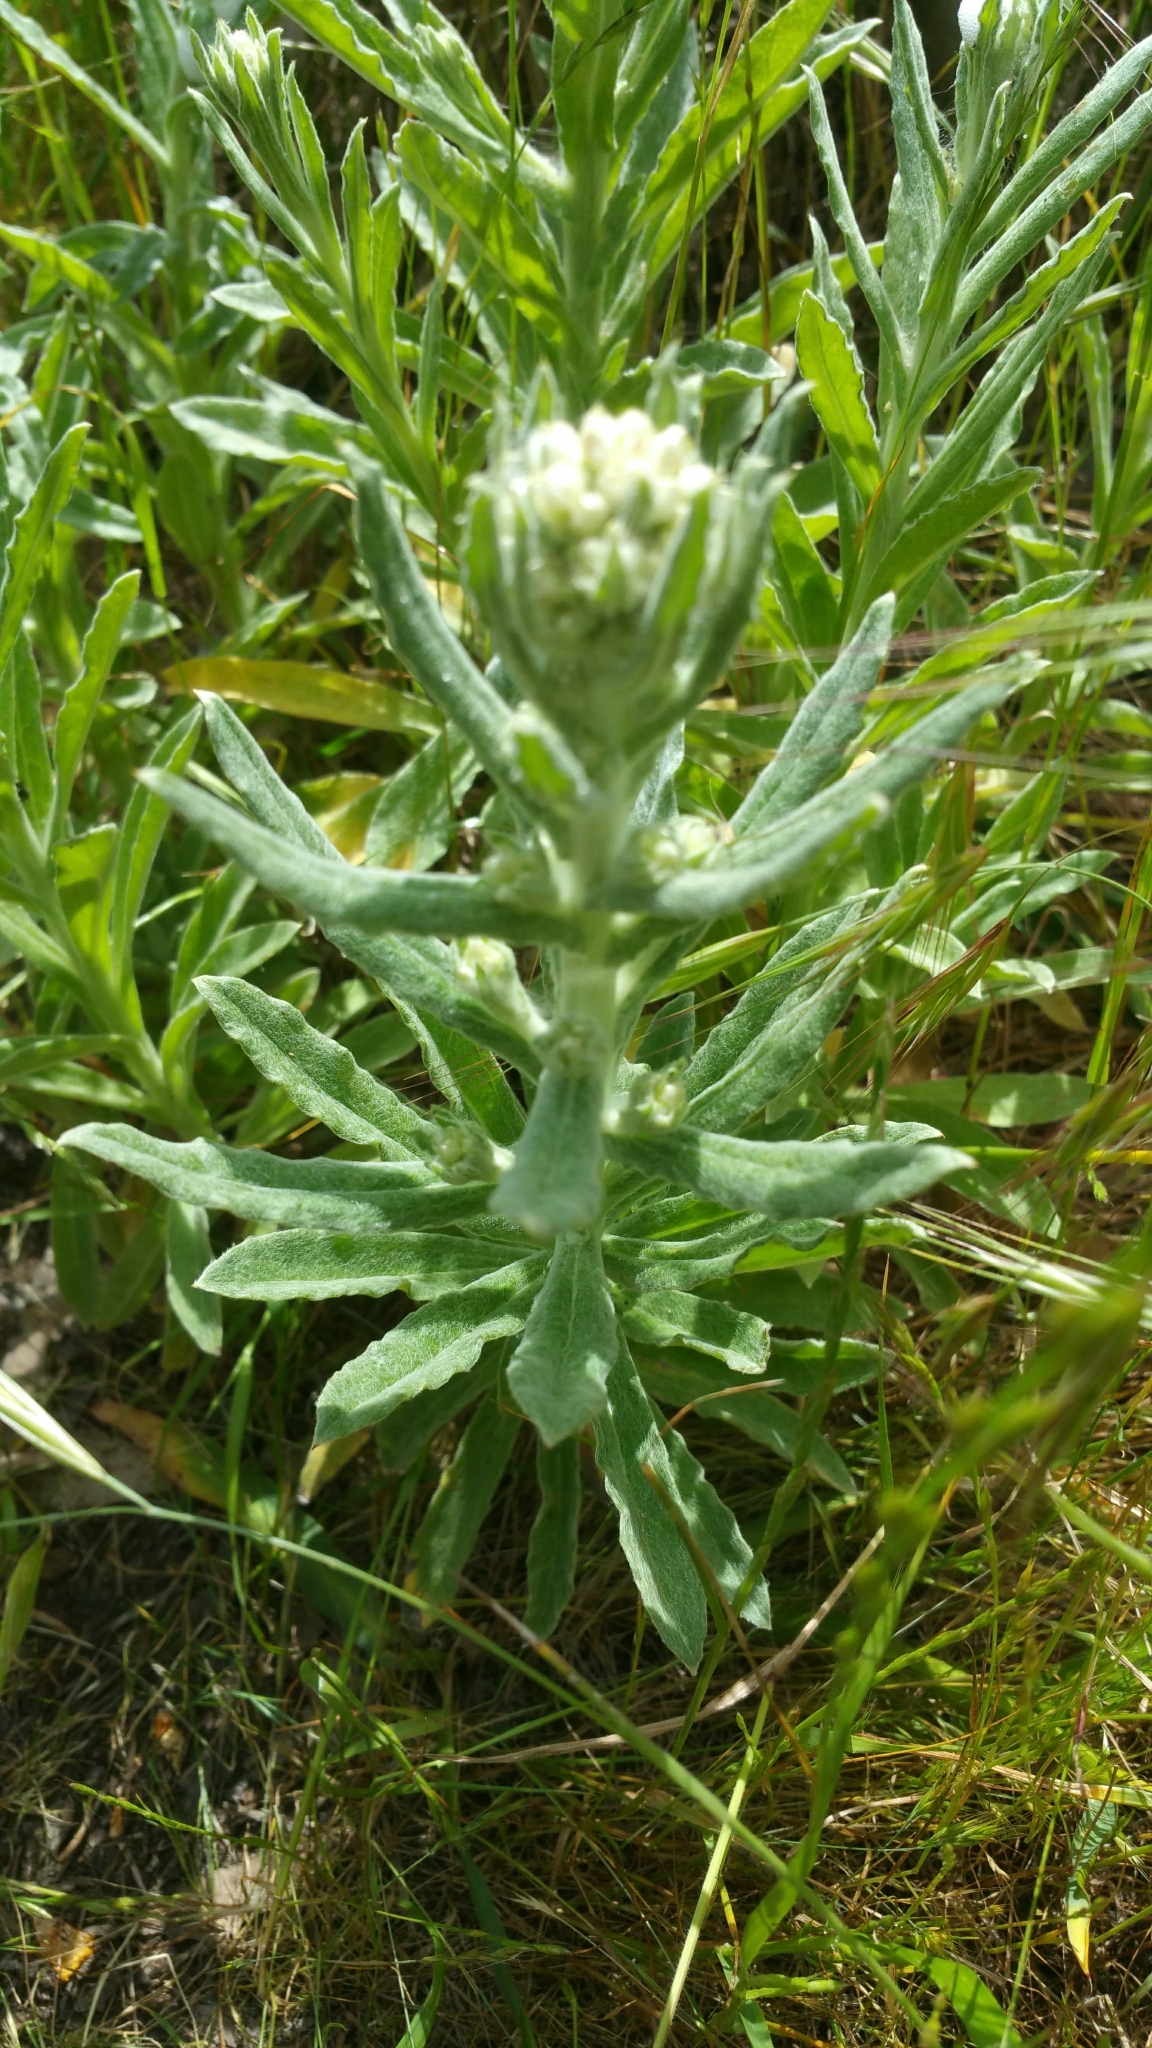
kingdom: Plantae
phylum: Tracheophyta
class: Magnoliopsida
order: Asterales
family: Asteraceae
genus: Pseudognaphalium
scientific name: Pseudognaphalium stramineum
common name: Cotton-batting-plant
